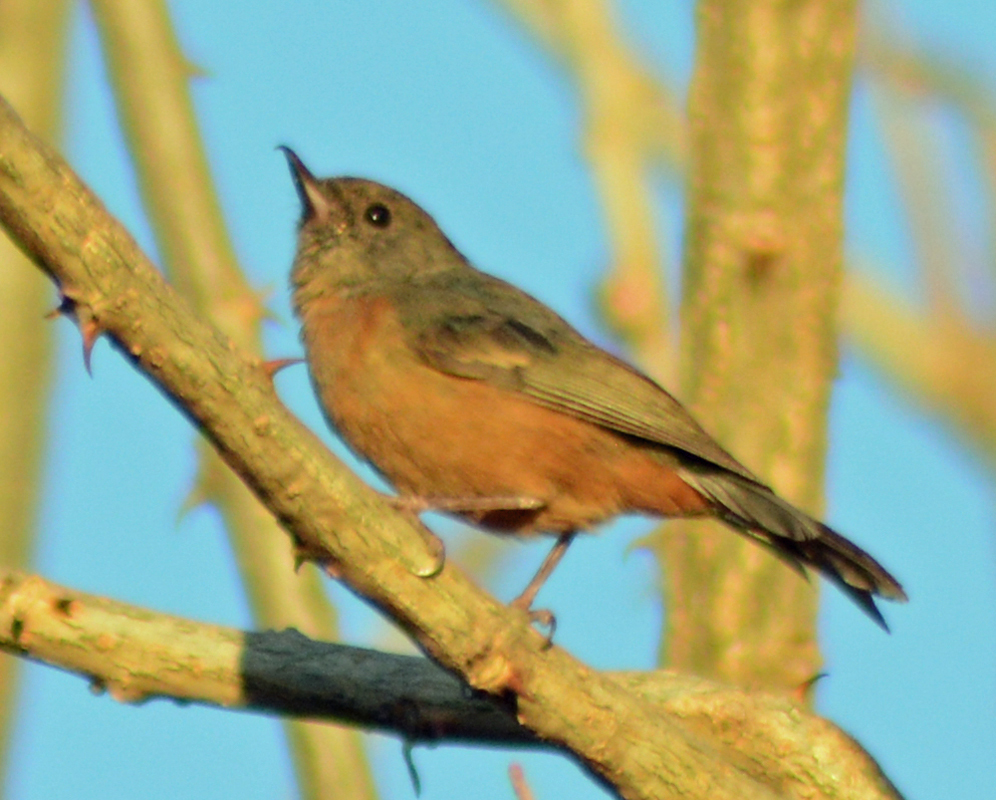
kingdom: Animalia
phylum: Chordata
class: Aves
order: Passeriformes
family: Thraupidae
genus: Diglossa
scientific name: Diglossa baritula
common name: Cinnamon-bellied flowerpiercer
